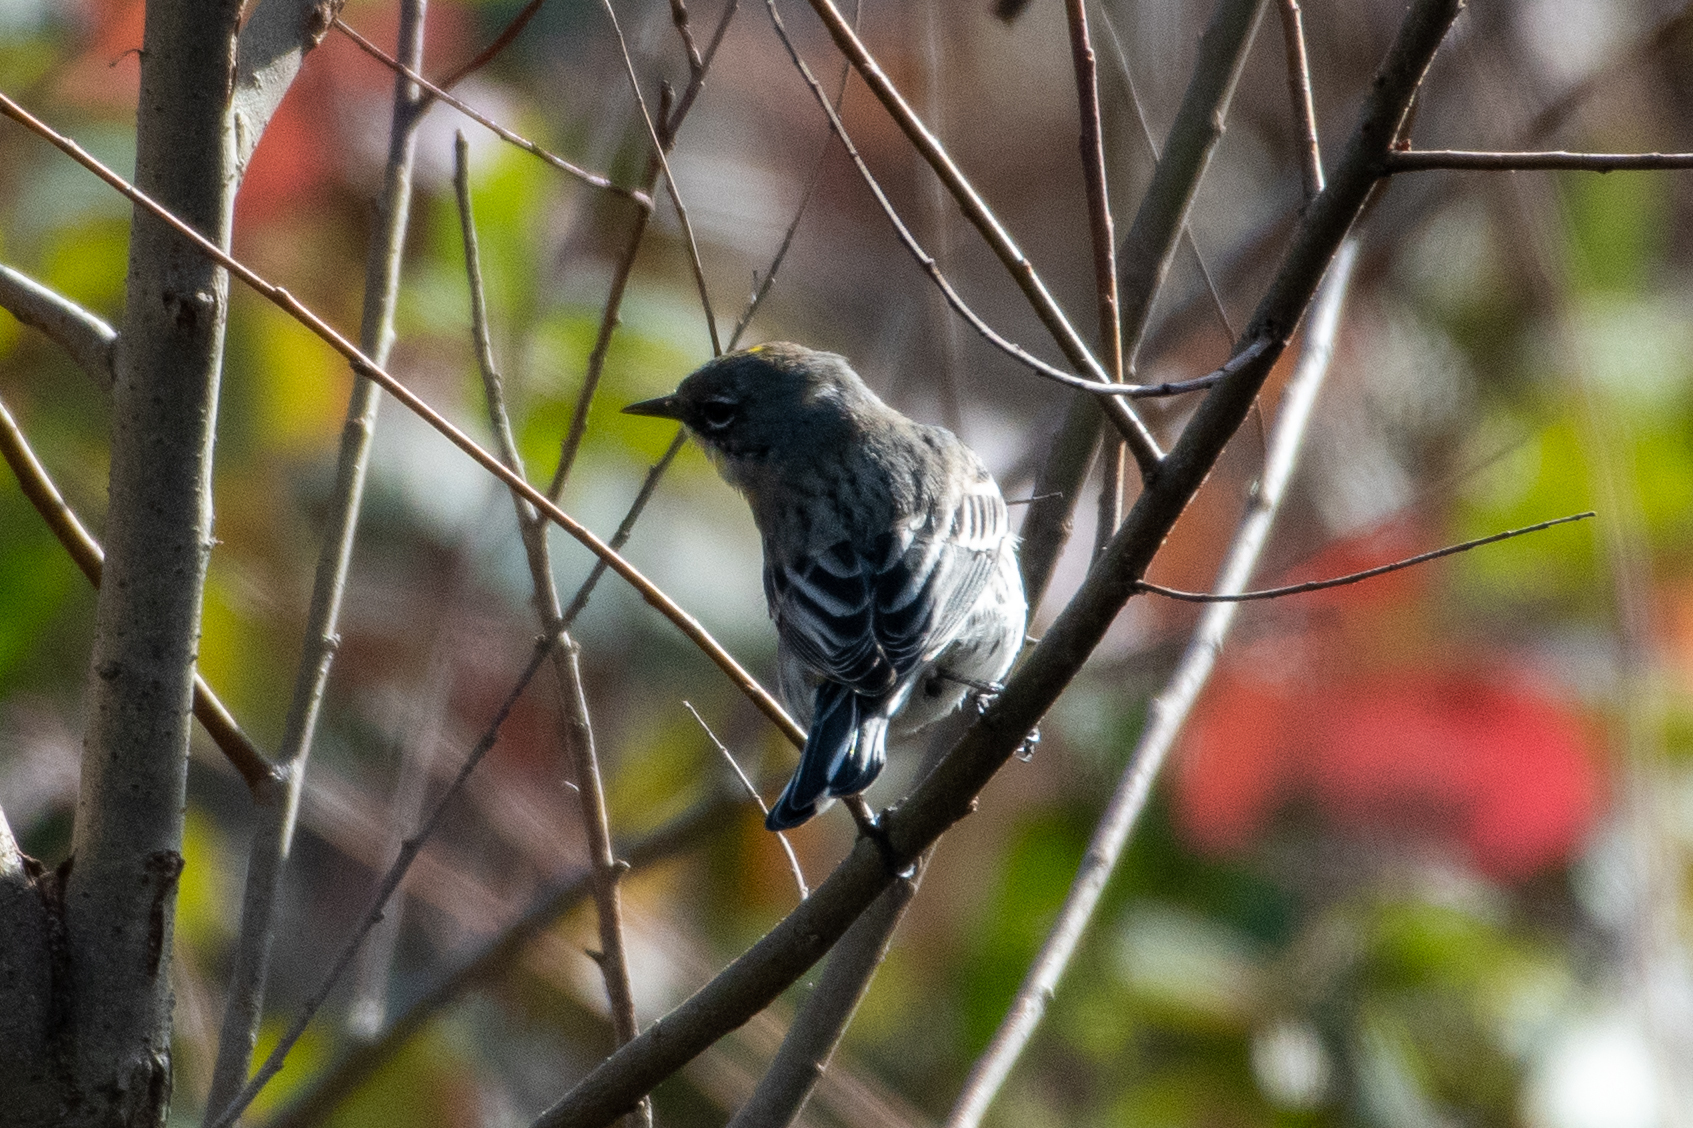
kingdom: Animalia
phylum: Chordata
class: Aves
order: Passeriformes
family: Parulidae
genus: Setophaga
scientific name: Setophaga coronata
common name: Myrtle warbler
